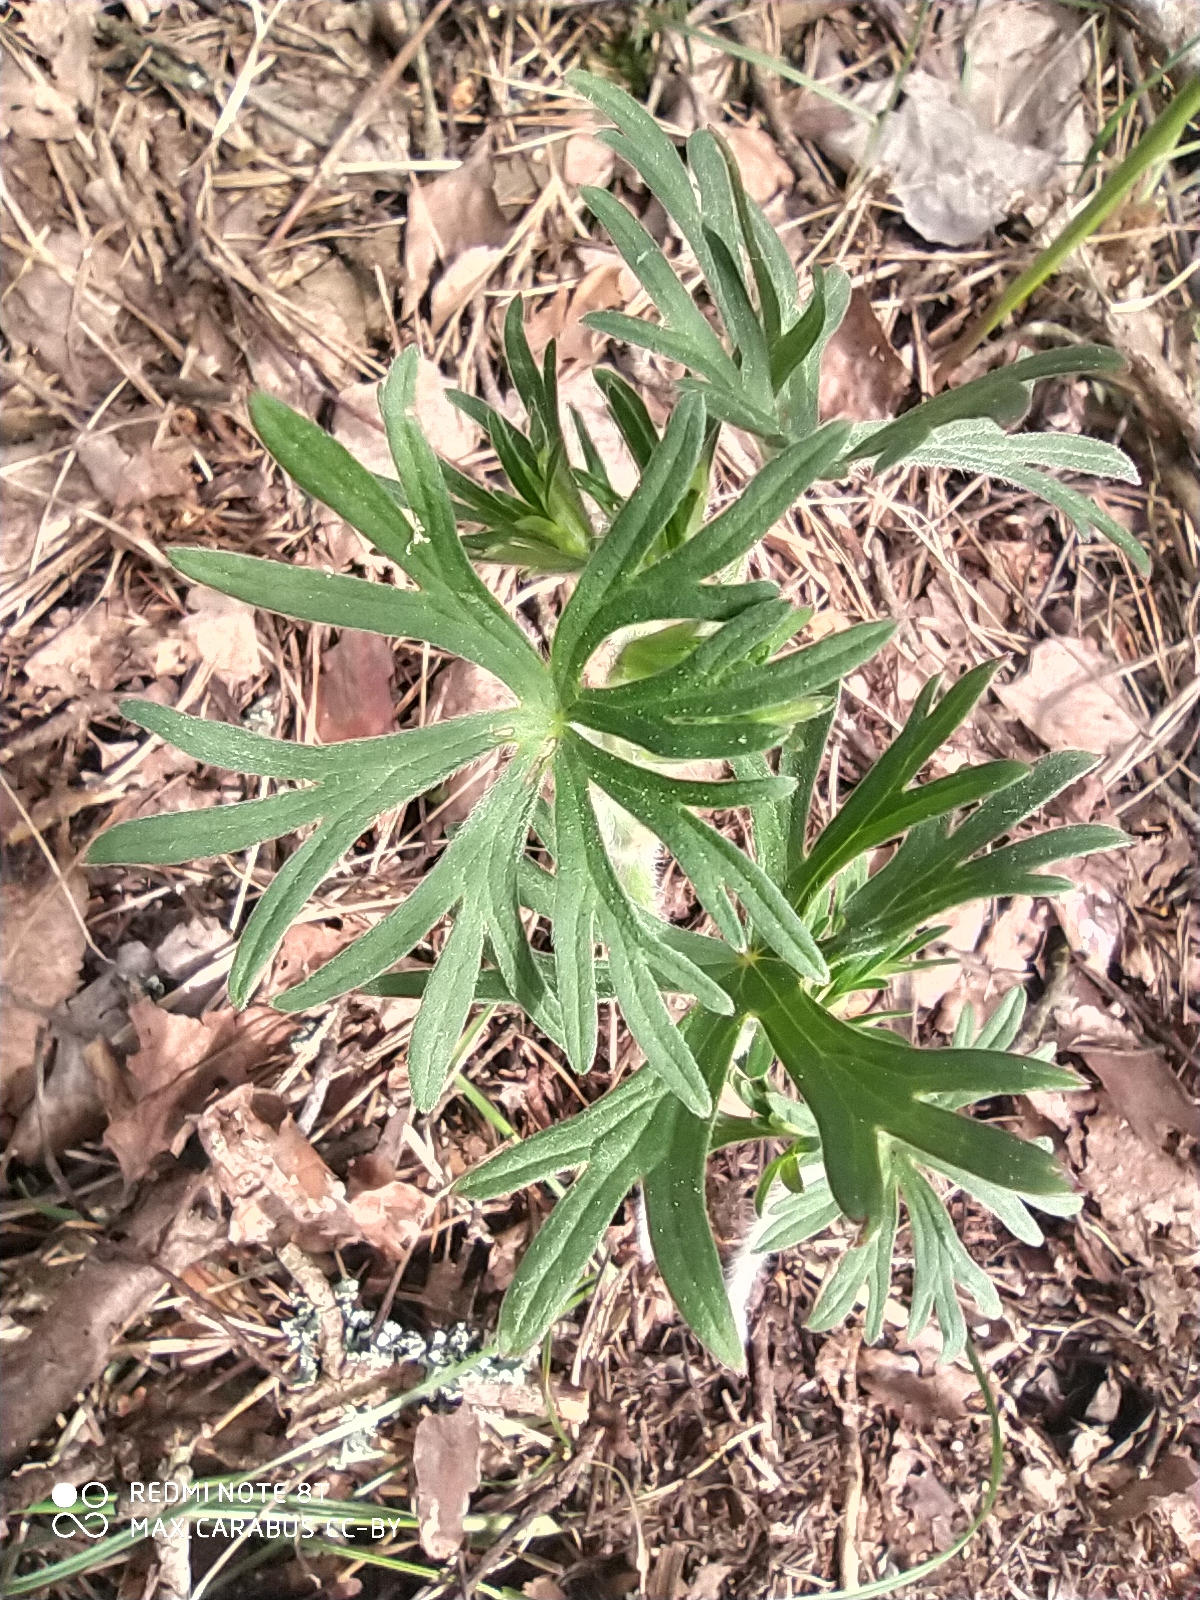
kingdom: Plantae
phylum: Tracheophyta
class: Magnoliopsida
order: Ranunculales
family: Ranunculaceae
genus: Pulsatilla
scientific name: Pulsatilla patens
